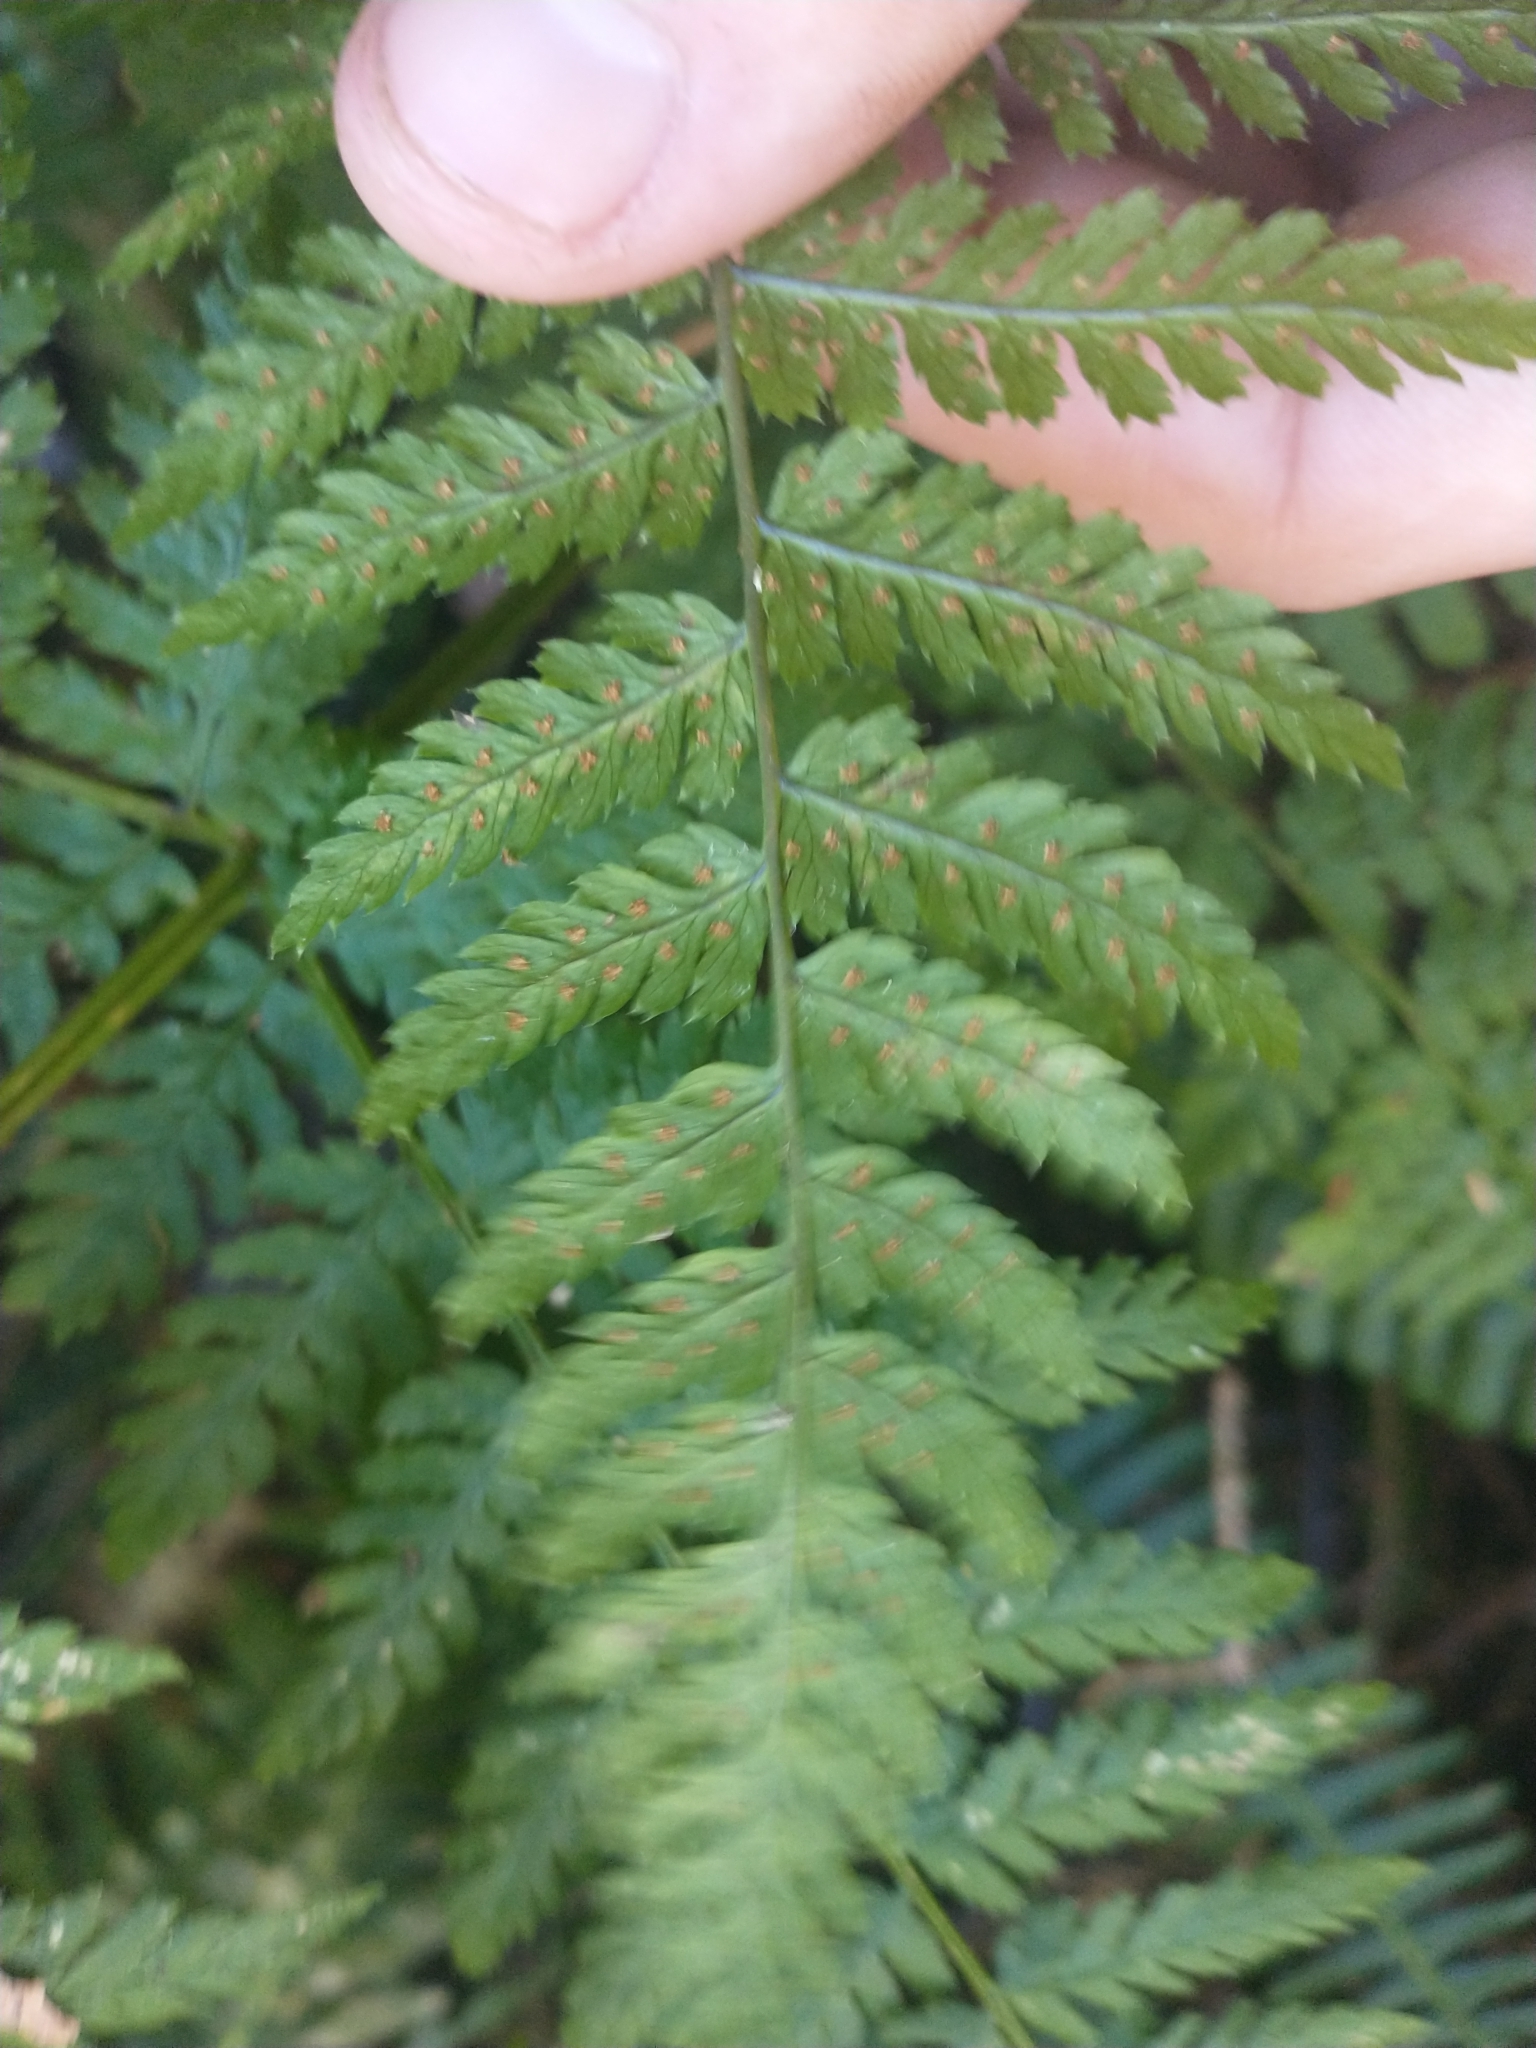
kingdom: Plantae
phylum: Tracheophyta
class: Polypodiopsida
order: Polypodiales
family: Dryopteridaceae
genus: Dryopteris
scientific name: Dryopteris expansa
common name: Northern buckler fern
